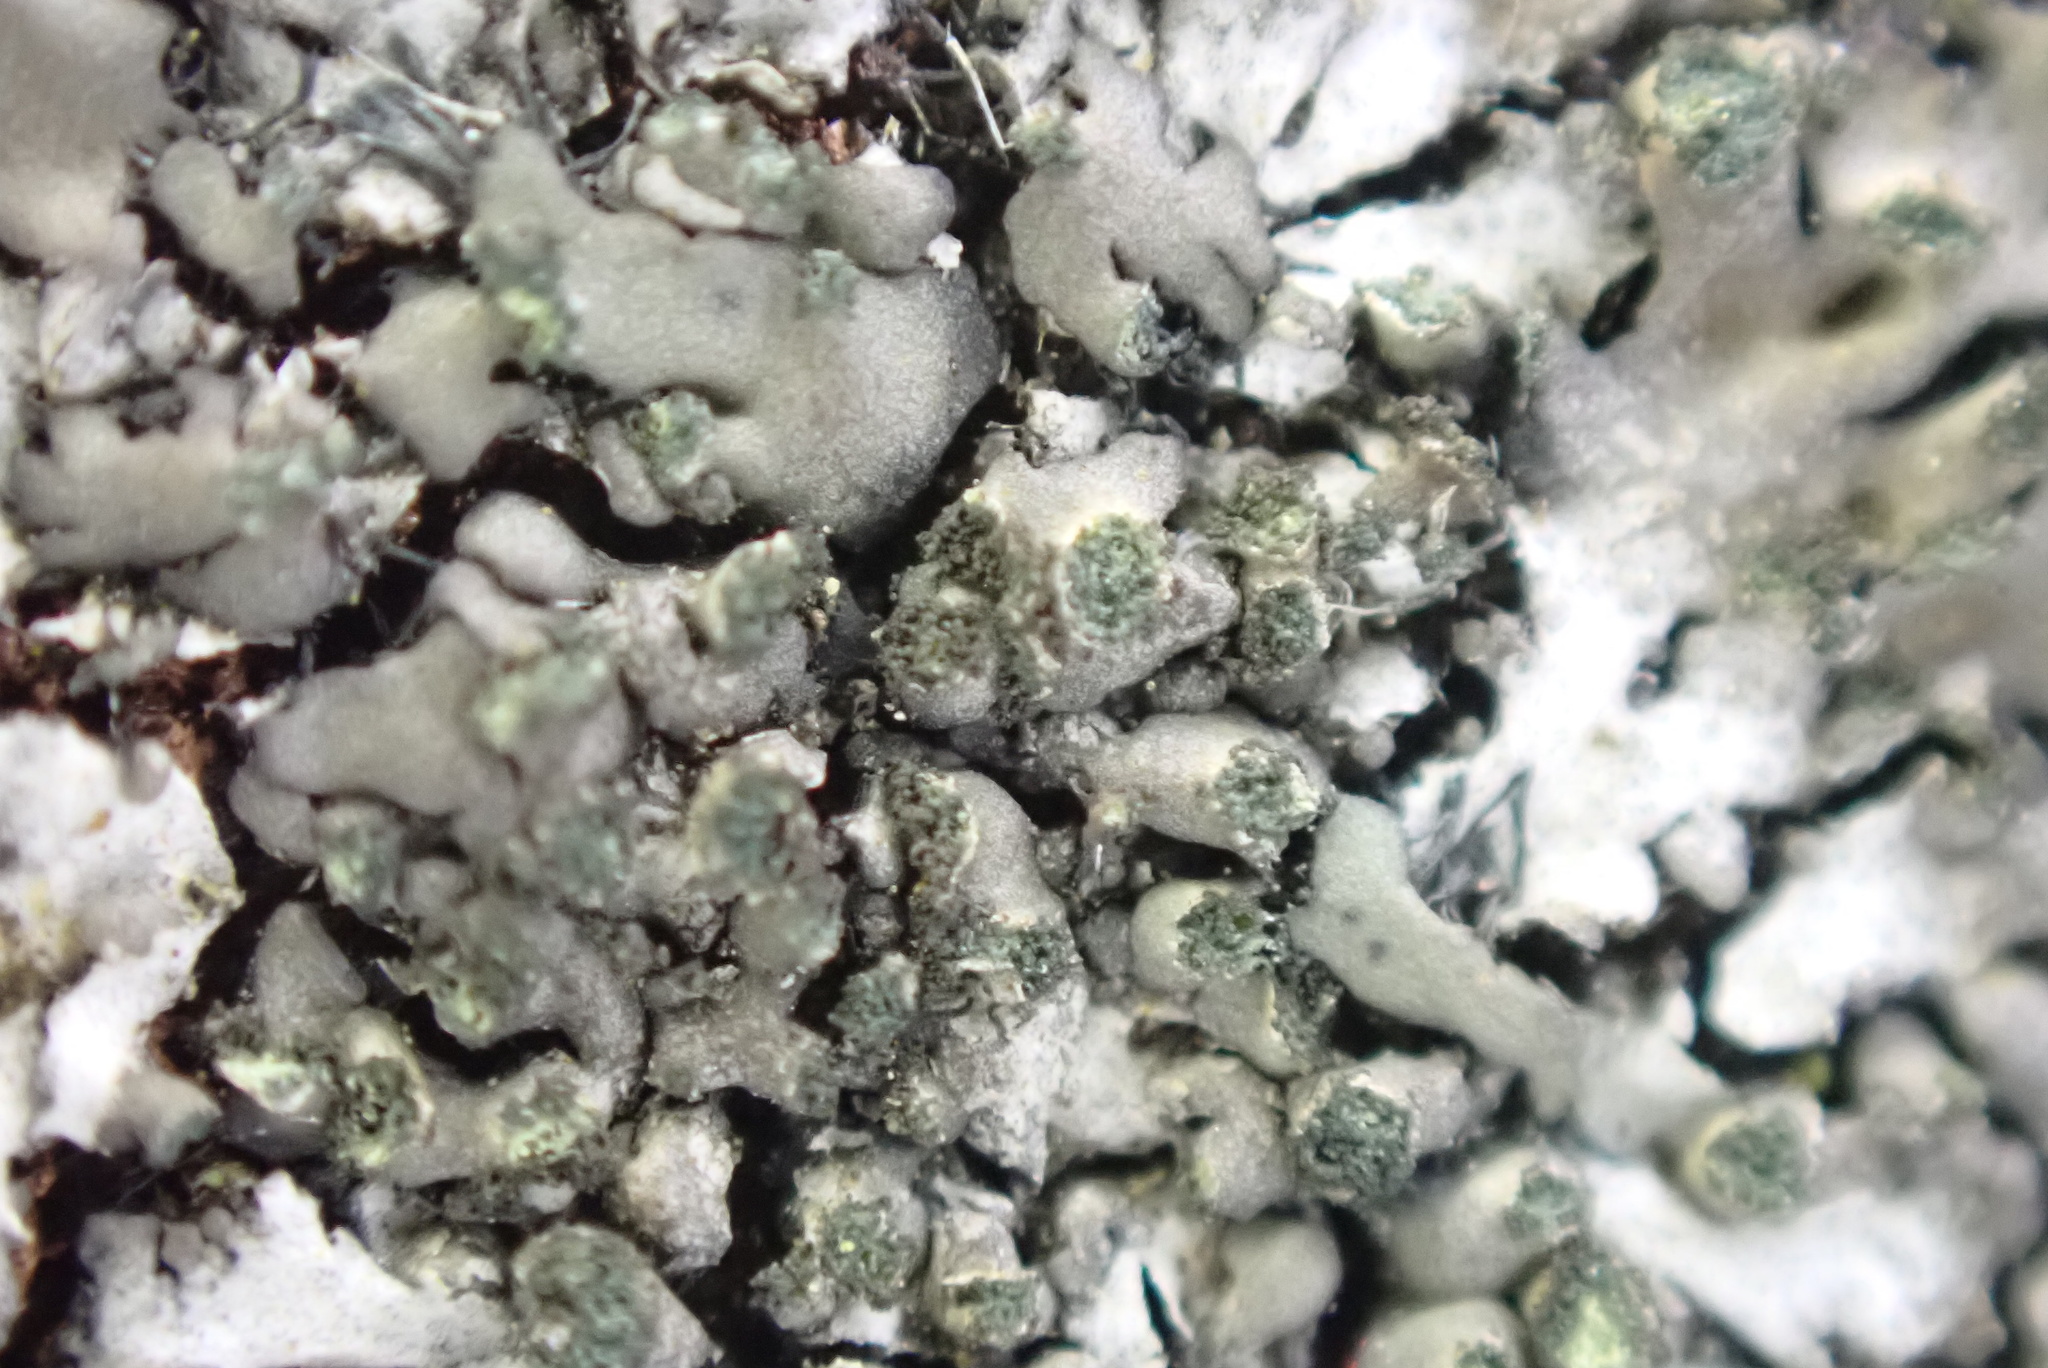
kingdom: Fungi
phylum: Ascomycota
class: Lecanoromycetes
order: Caliciales
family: Physciaceae
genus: Phaeophyscia
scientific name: Phaeophyscia orbicularis
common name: Mealy shadow lichen
